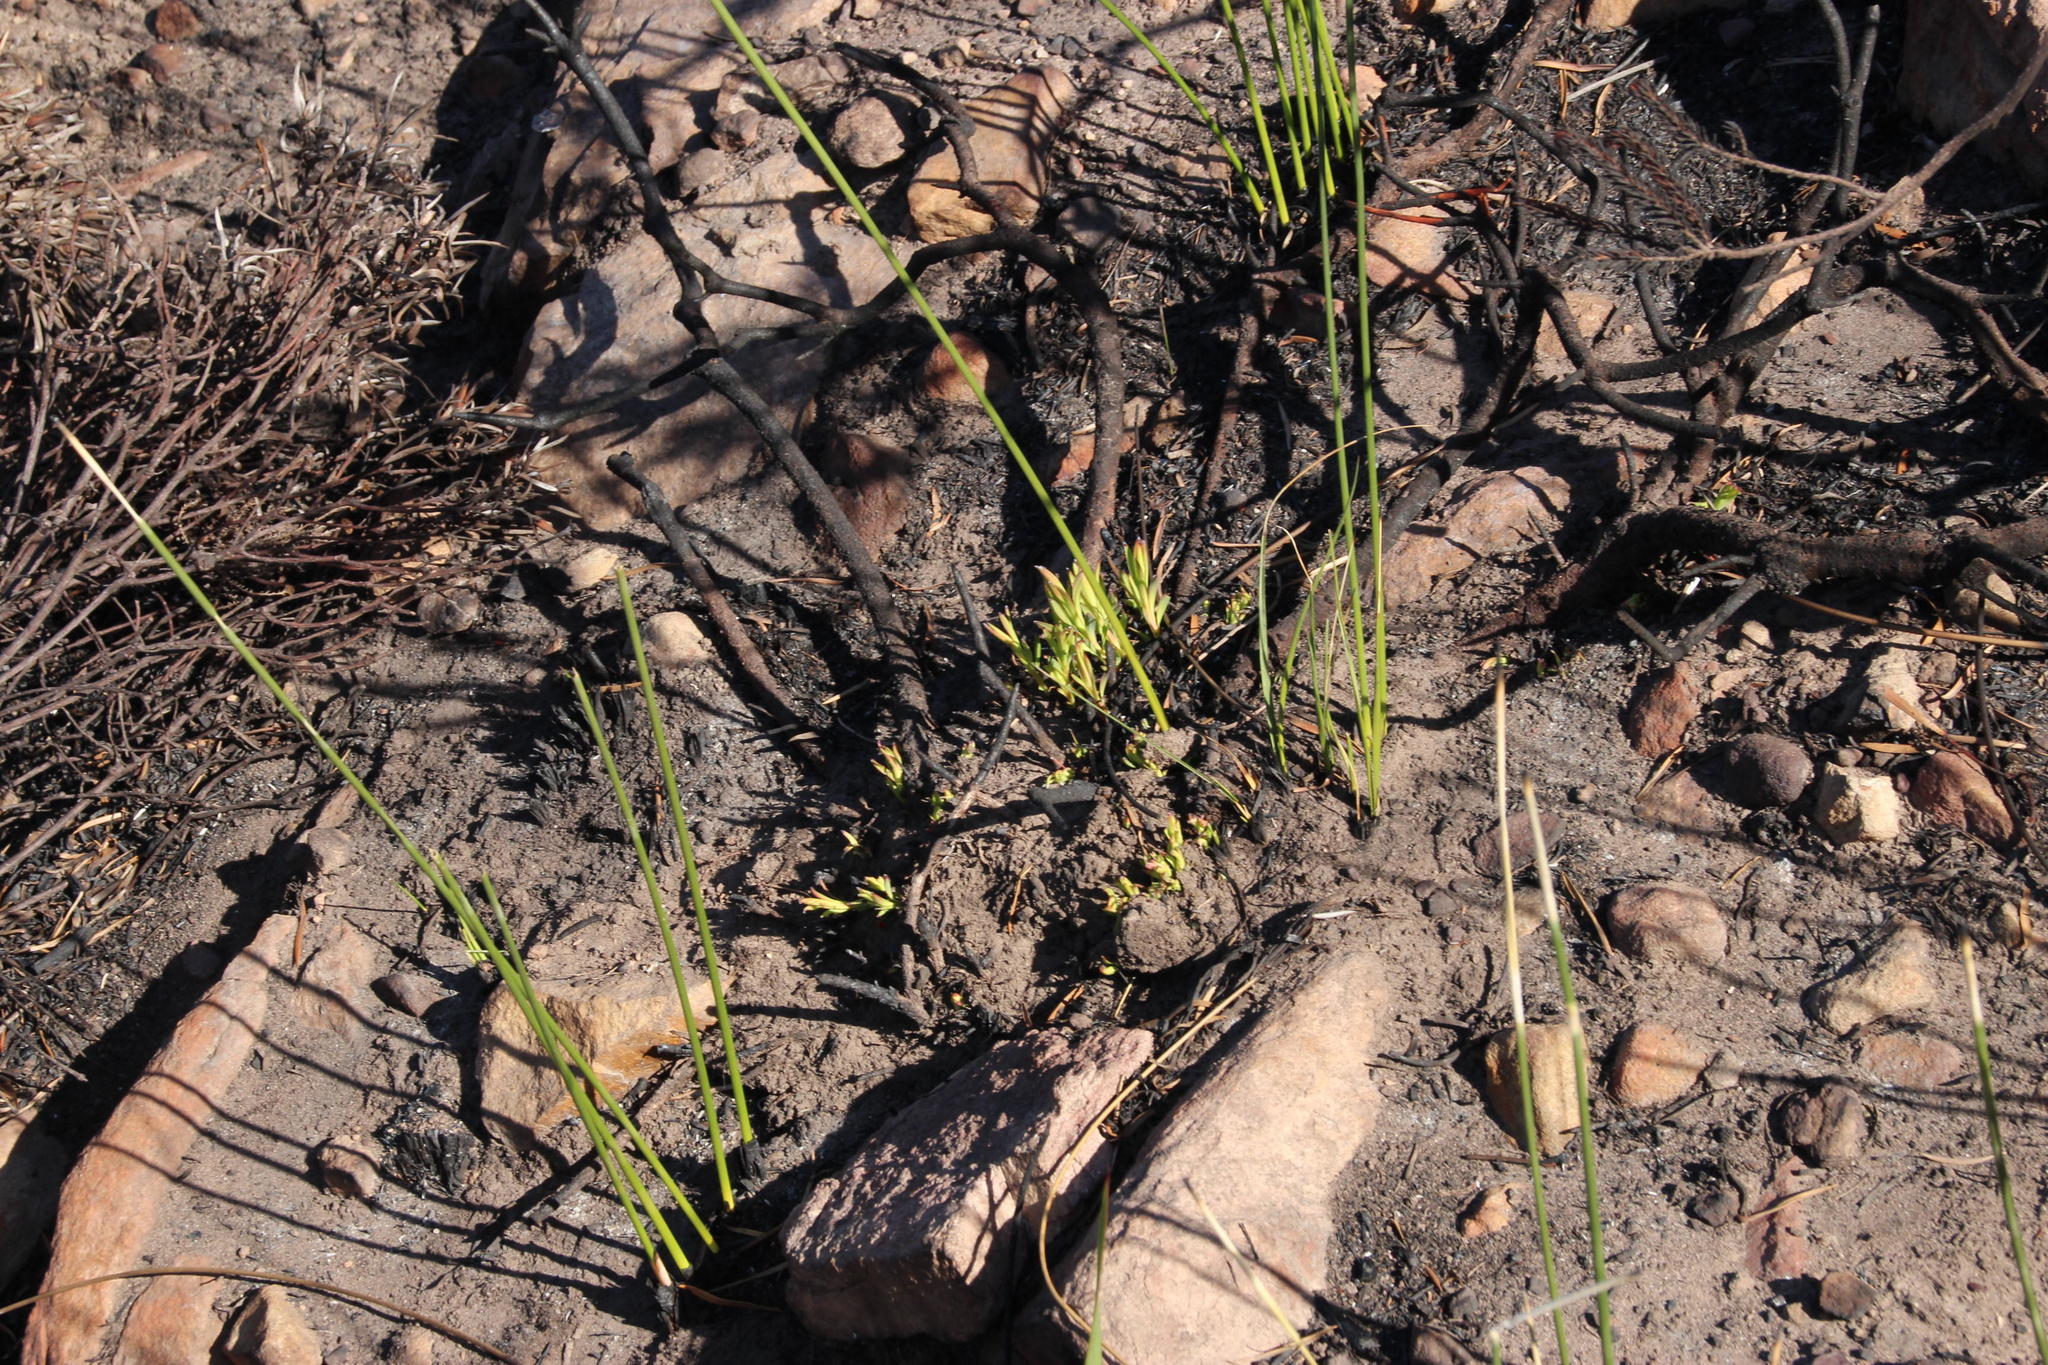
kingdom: Plantae
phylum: Tracheophyta
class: Magnoliopsida
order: Proteales
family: Proteaceae
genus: Leucadendron
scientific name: Leucadendron salignum
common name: Common sunshine conebush
